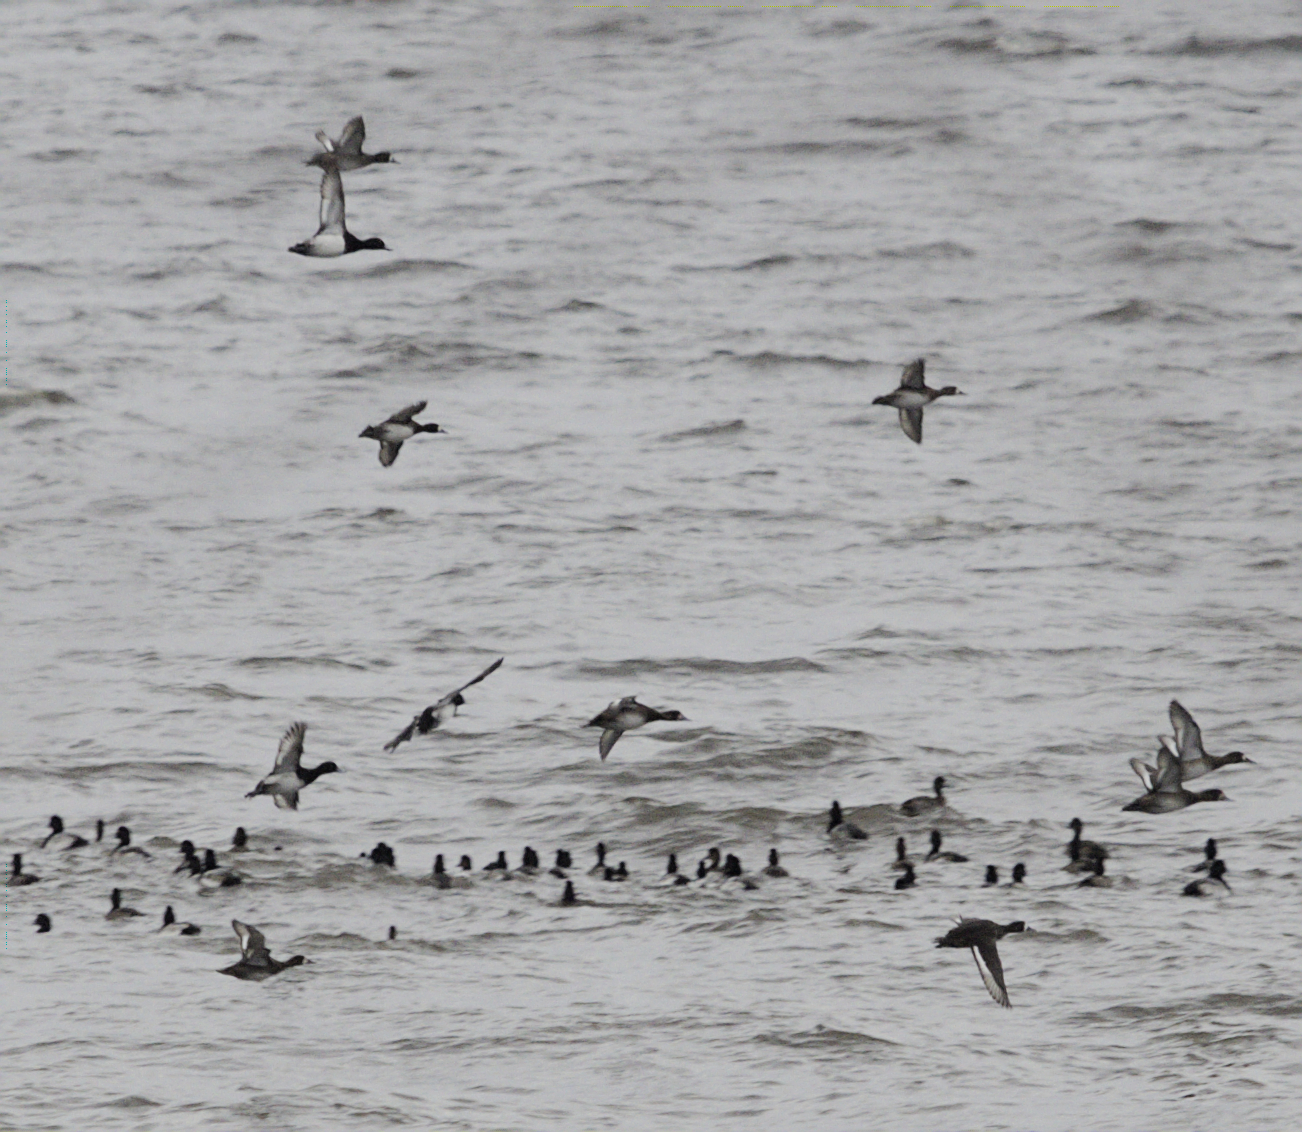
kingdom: Animalia
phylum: Chordata
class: Aves
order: Anseriformes
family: Anatidae
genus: Aythya
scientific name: Aythya affinis
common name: Lesser scaup
